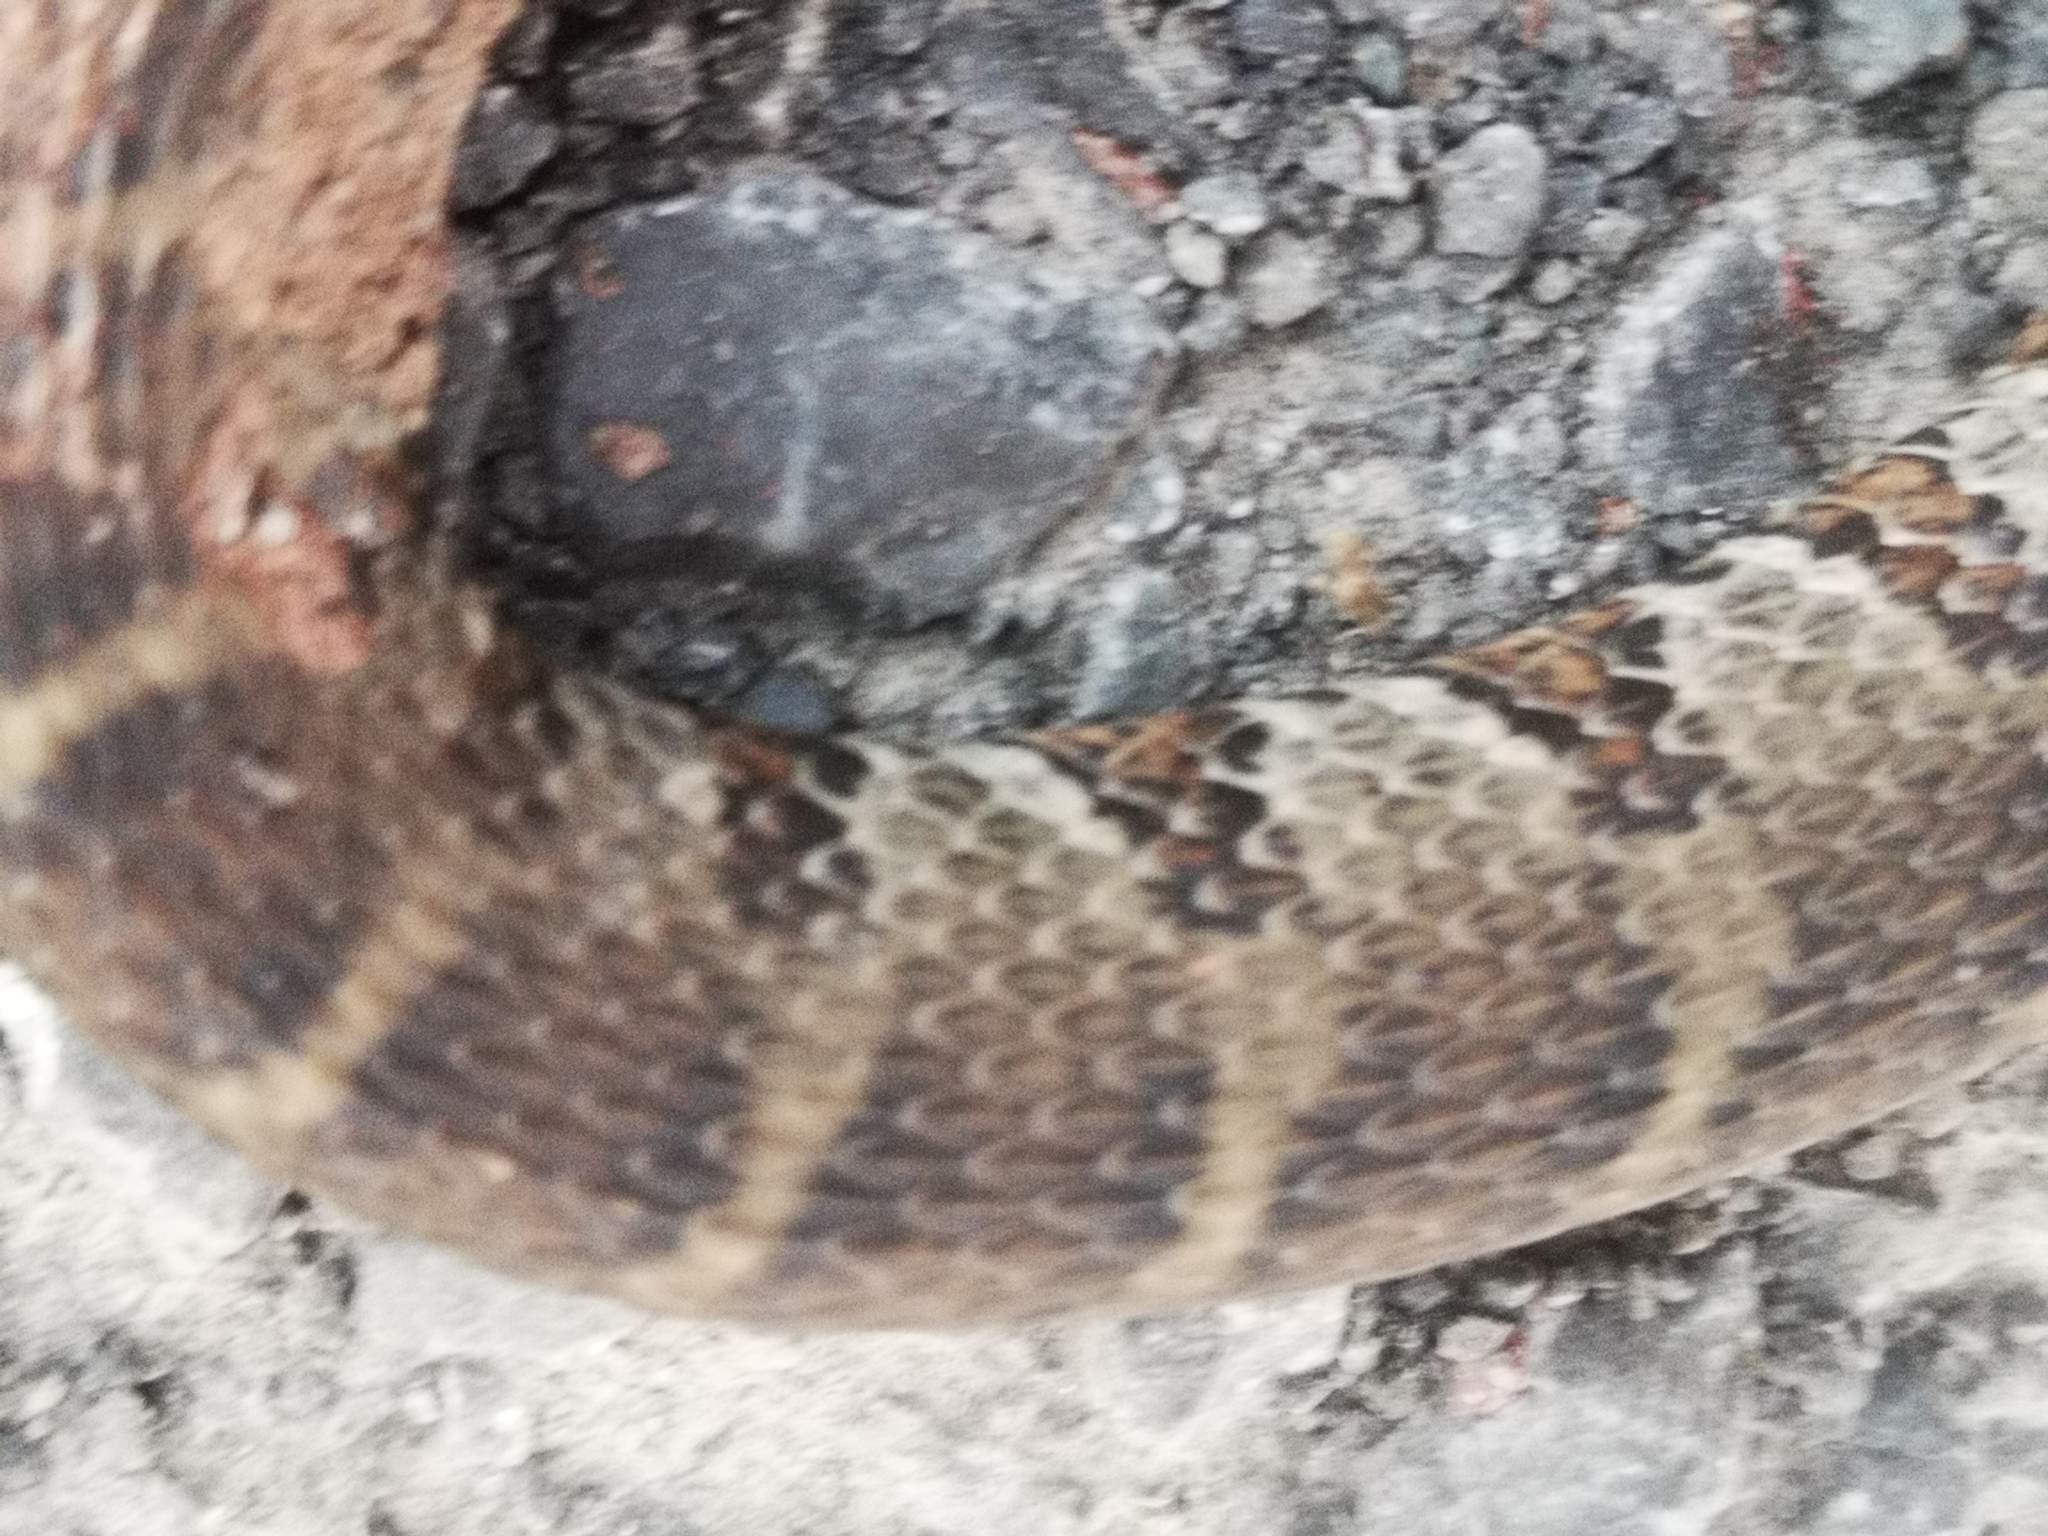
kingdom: Animalia
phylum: Chordata
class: Squamata
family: Colubridae
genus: Nerodia
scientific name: Nerodia sipedon
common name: Northern water snake
